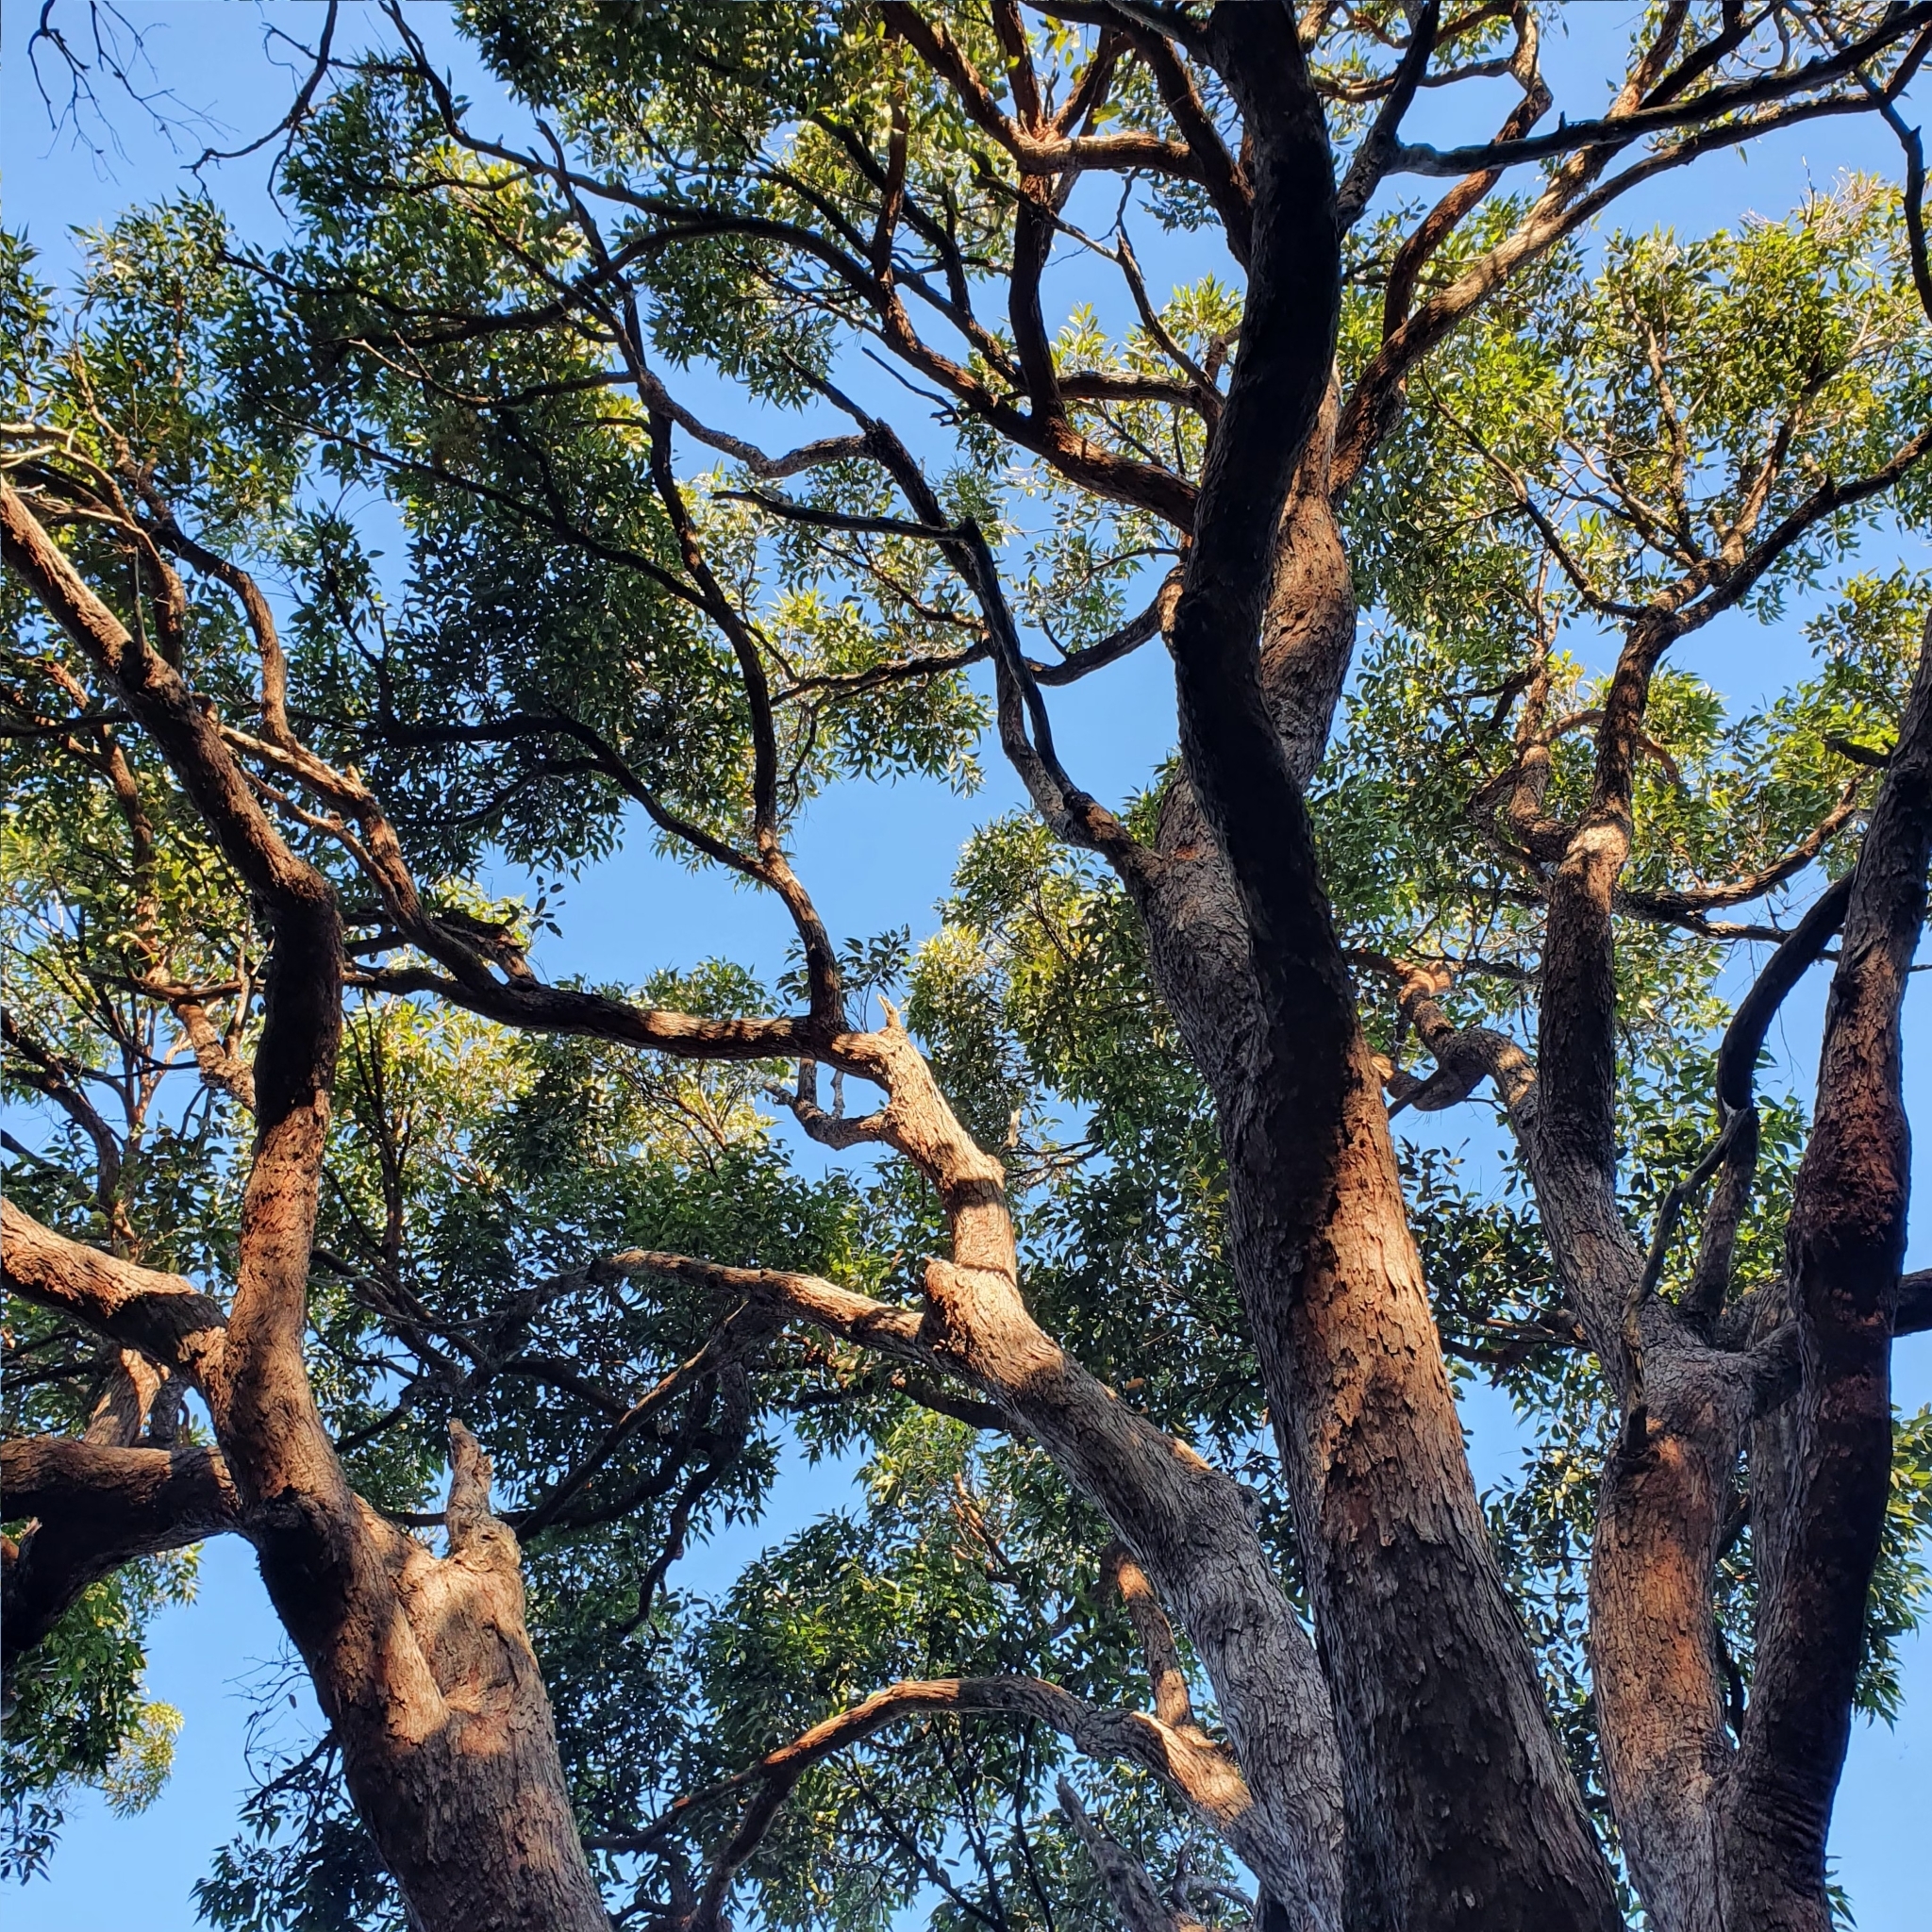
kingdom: Plantae
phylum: Tracheophyta
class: Magnoliopsida
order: Myrtales
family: Myrtaceae
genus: Eucalyptus
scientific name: Eucalyptus scias
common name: Red mahogany
